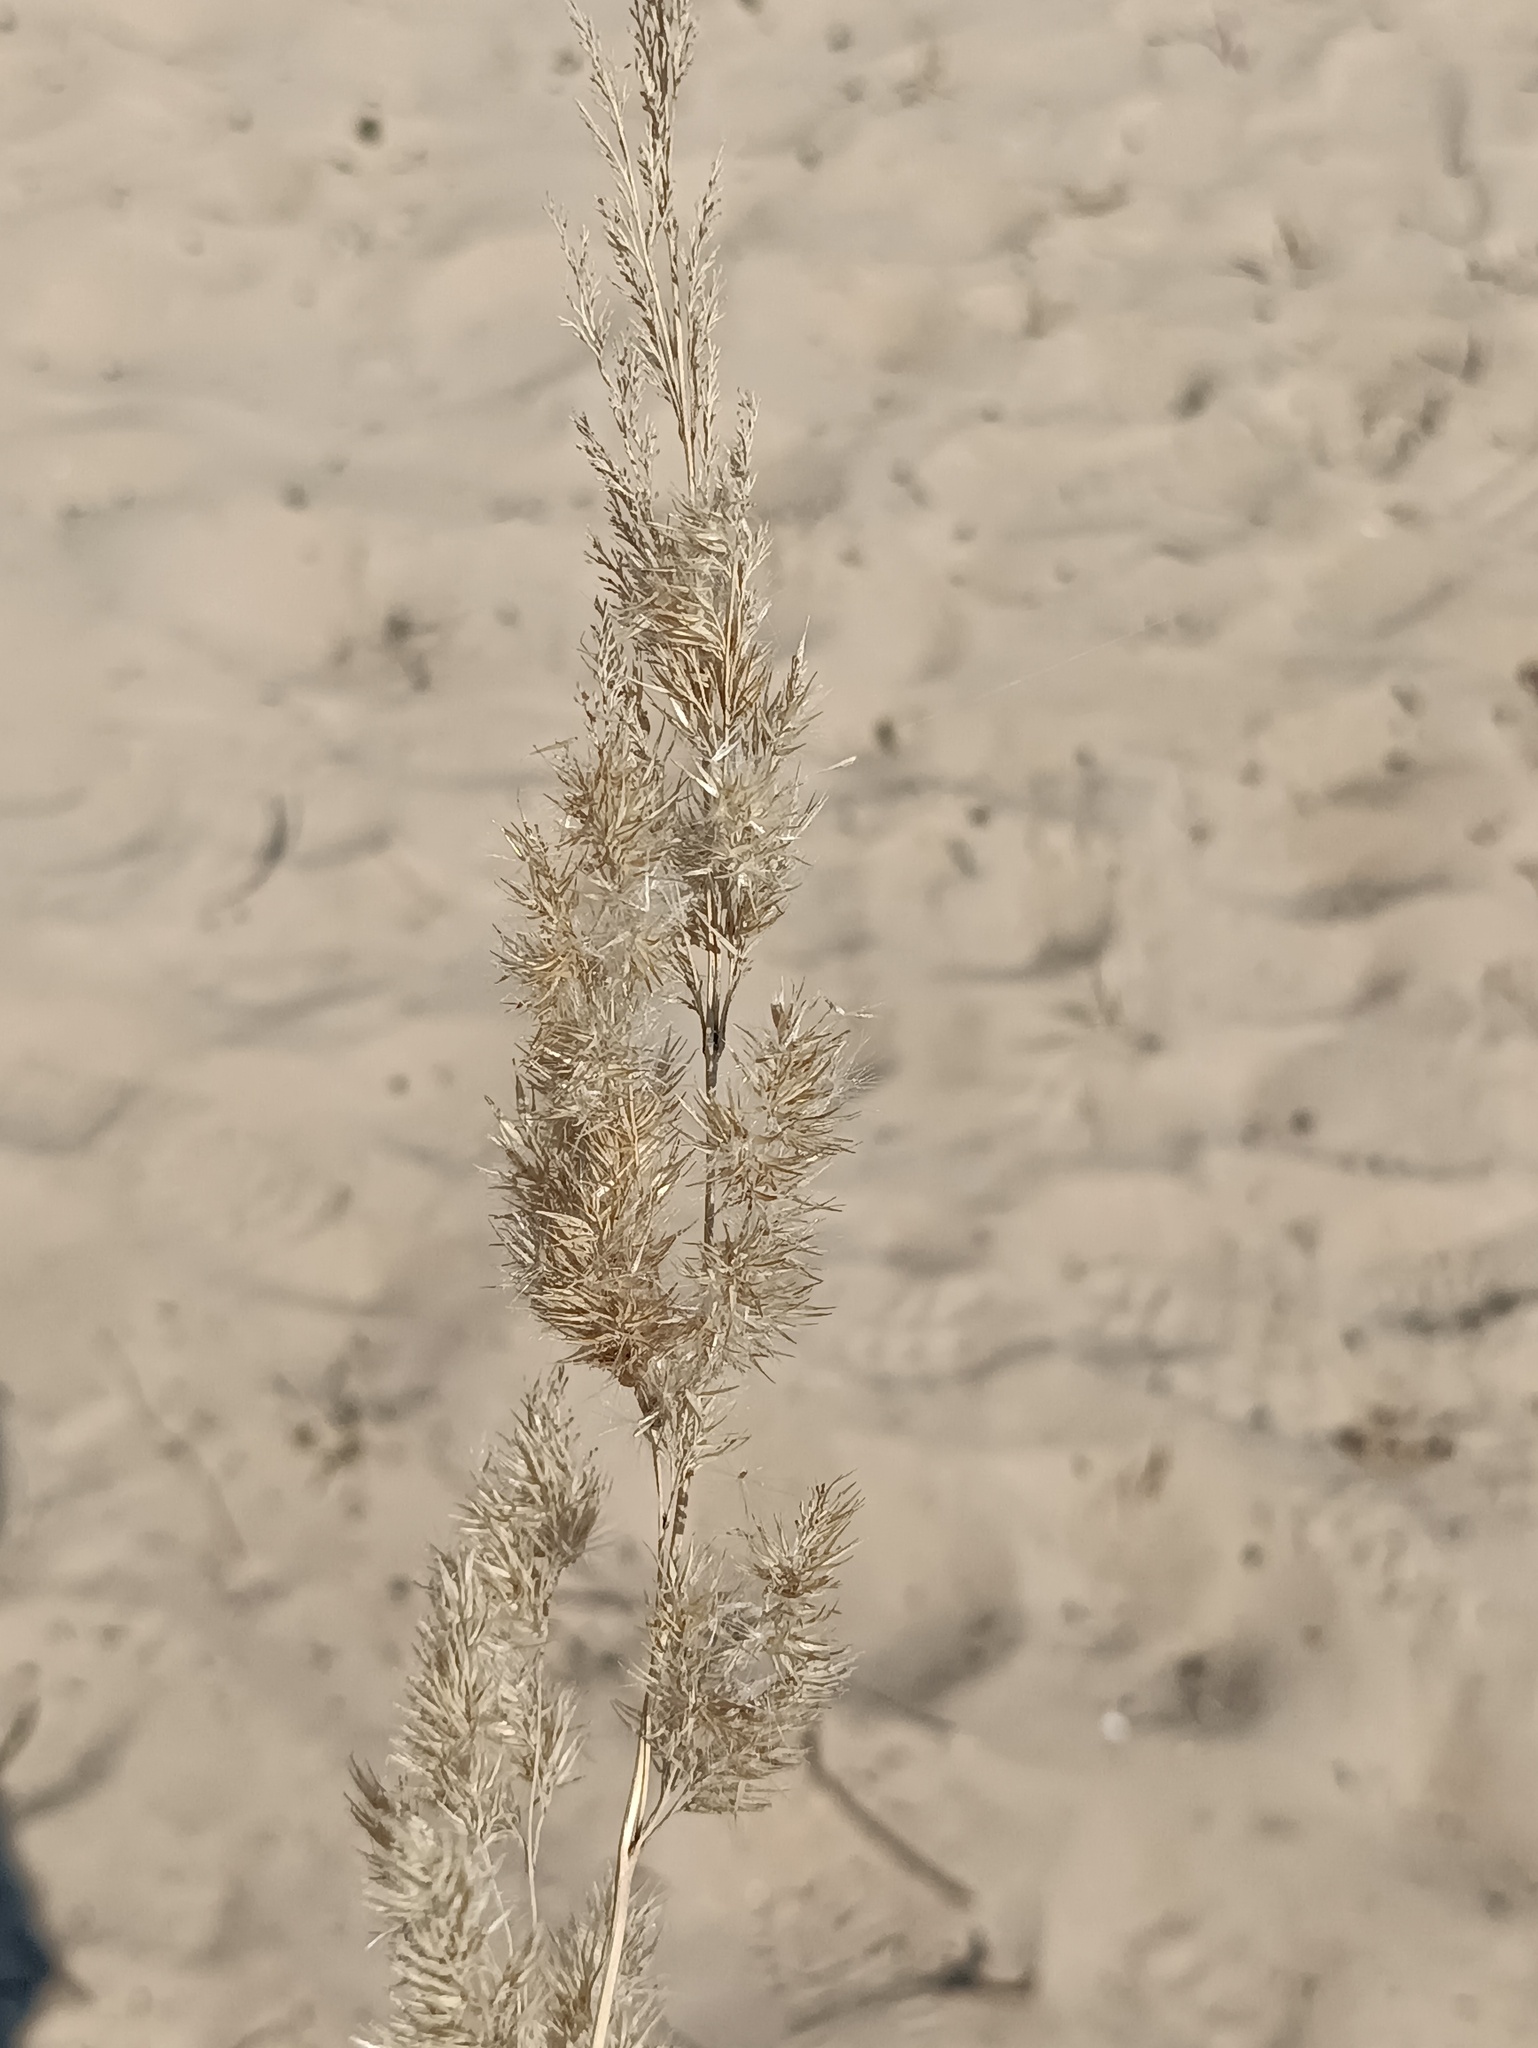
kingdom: Plantae
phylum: Tracheophyta
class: Liliopsida
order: Poales
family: Poaceae
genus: Calamagrostis
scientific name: Calamagrostis epigejos
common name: Wood small-reed
